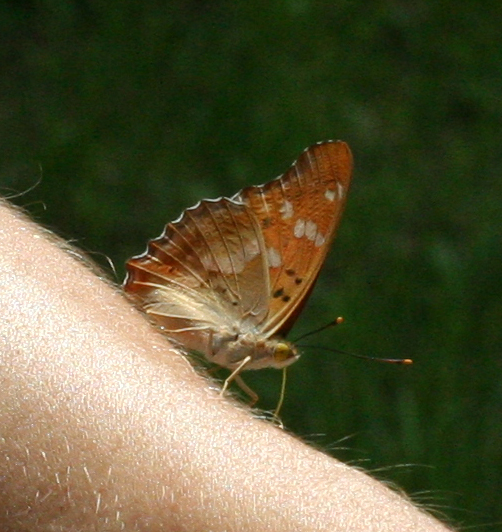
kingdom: Animalia
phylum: Arthropoda
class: Insecta
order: Lepidoptera
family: Nymphalidae
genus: Apatura
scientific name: Apatura ilia
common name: Lesser purple emperor
